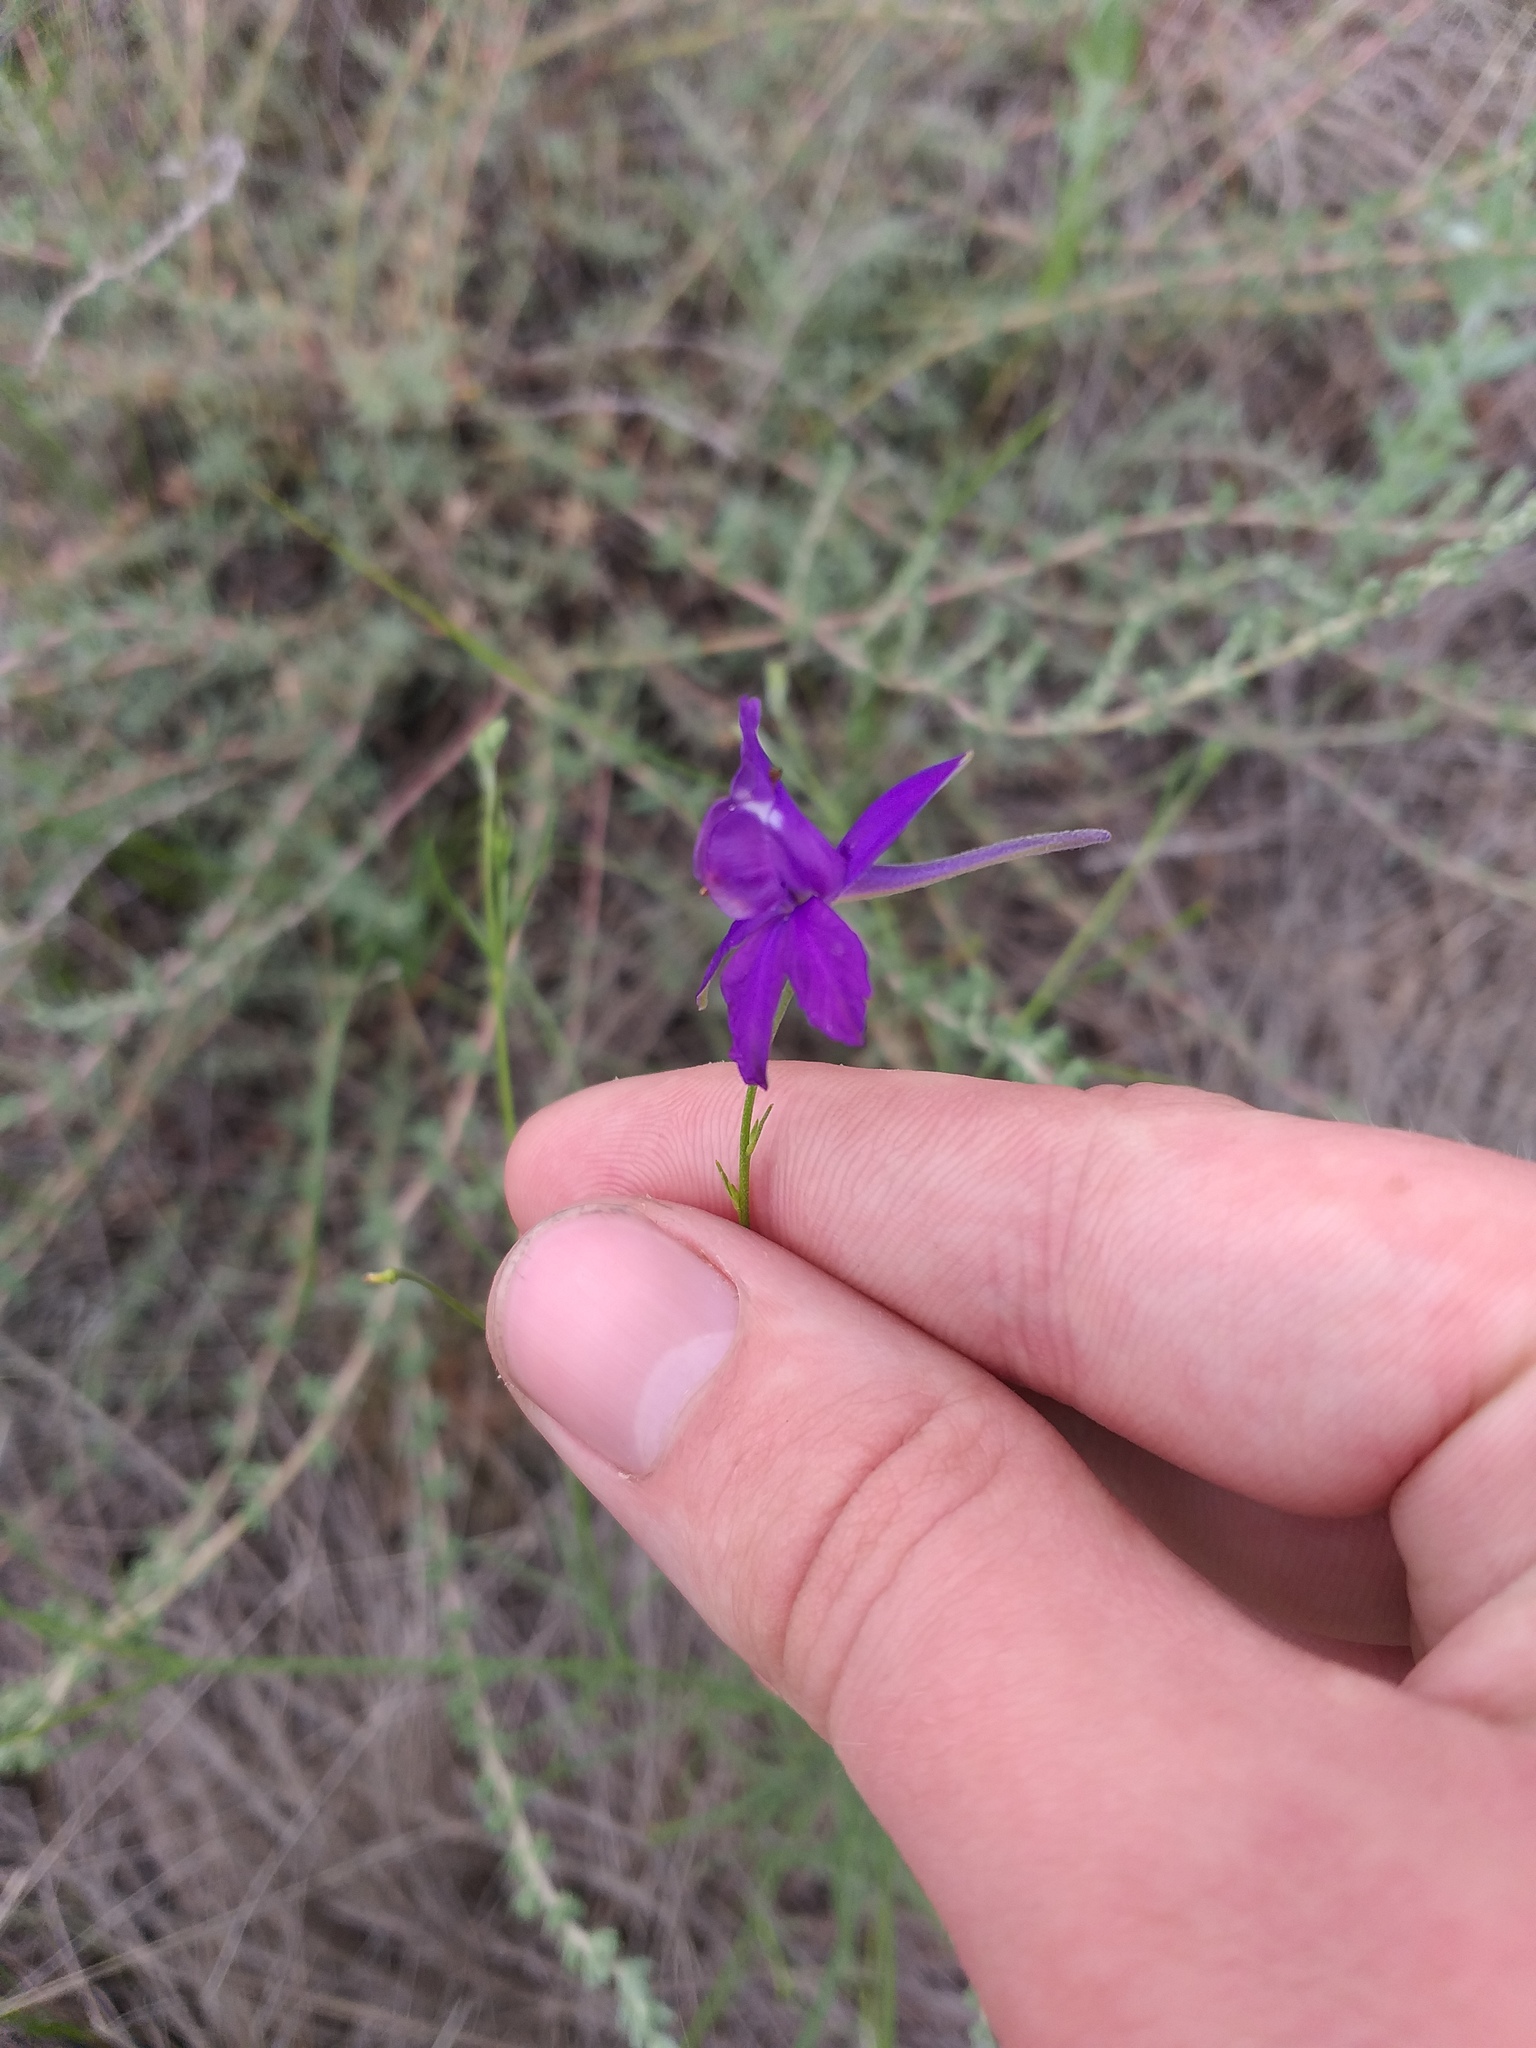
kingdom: Plantae
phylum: Tracheophyta
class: Magnoliopsida
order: Ranunculales
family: Ranunculaceae
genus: Delphinium
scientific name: Delphinium consolida
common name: Branching larkspur
